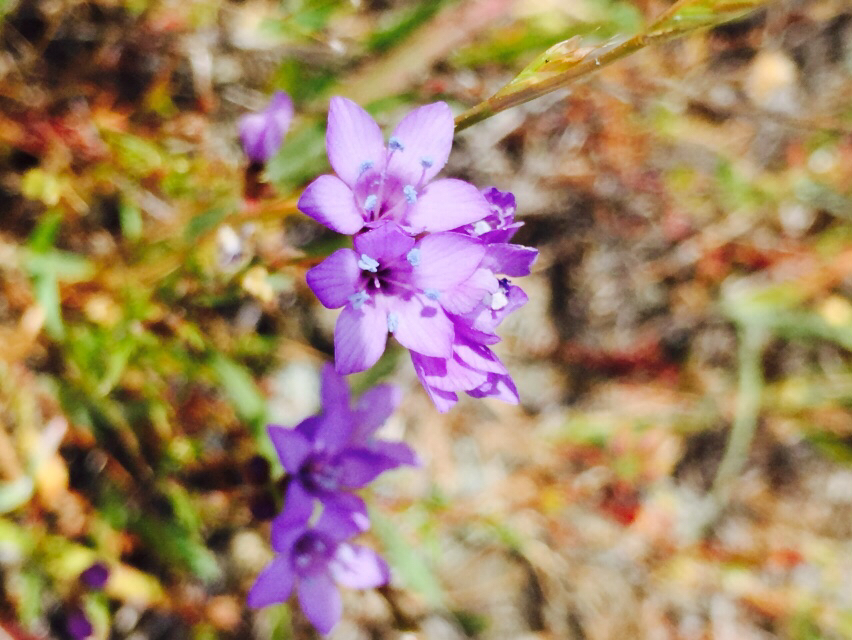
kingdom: Plantae
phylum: Tracheophyta
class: Magnoliopsida
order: Ericales
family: Polemoniaceae
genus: Gilia
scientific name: Gilia achilleifolia
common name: California gily-flower
